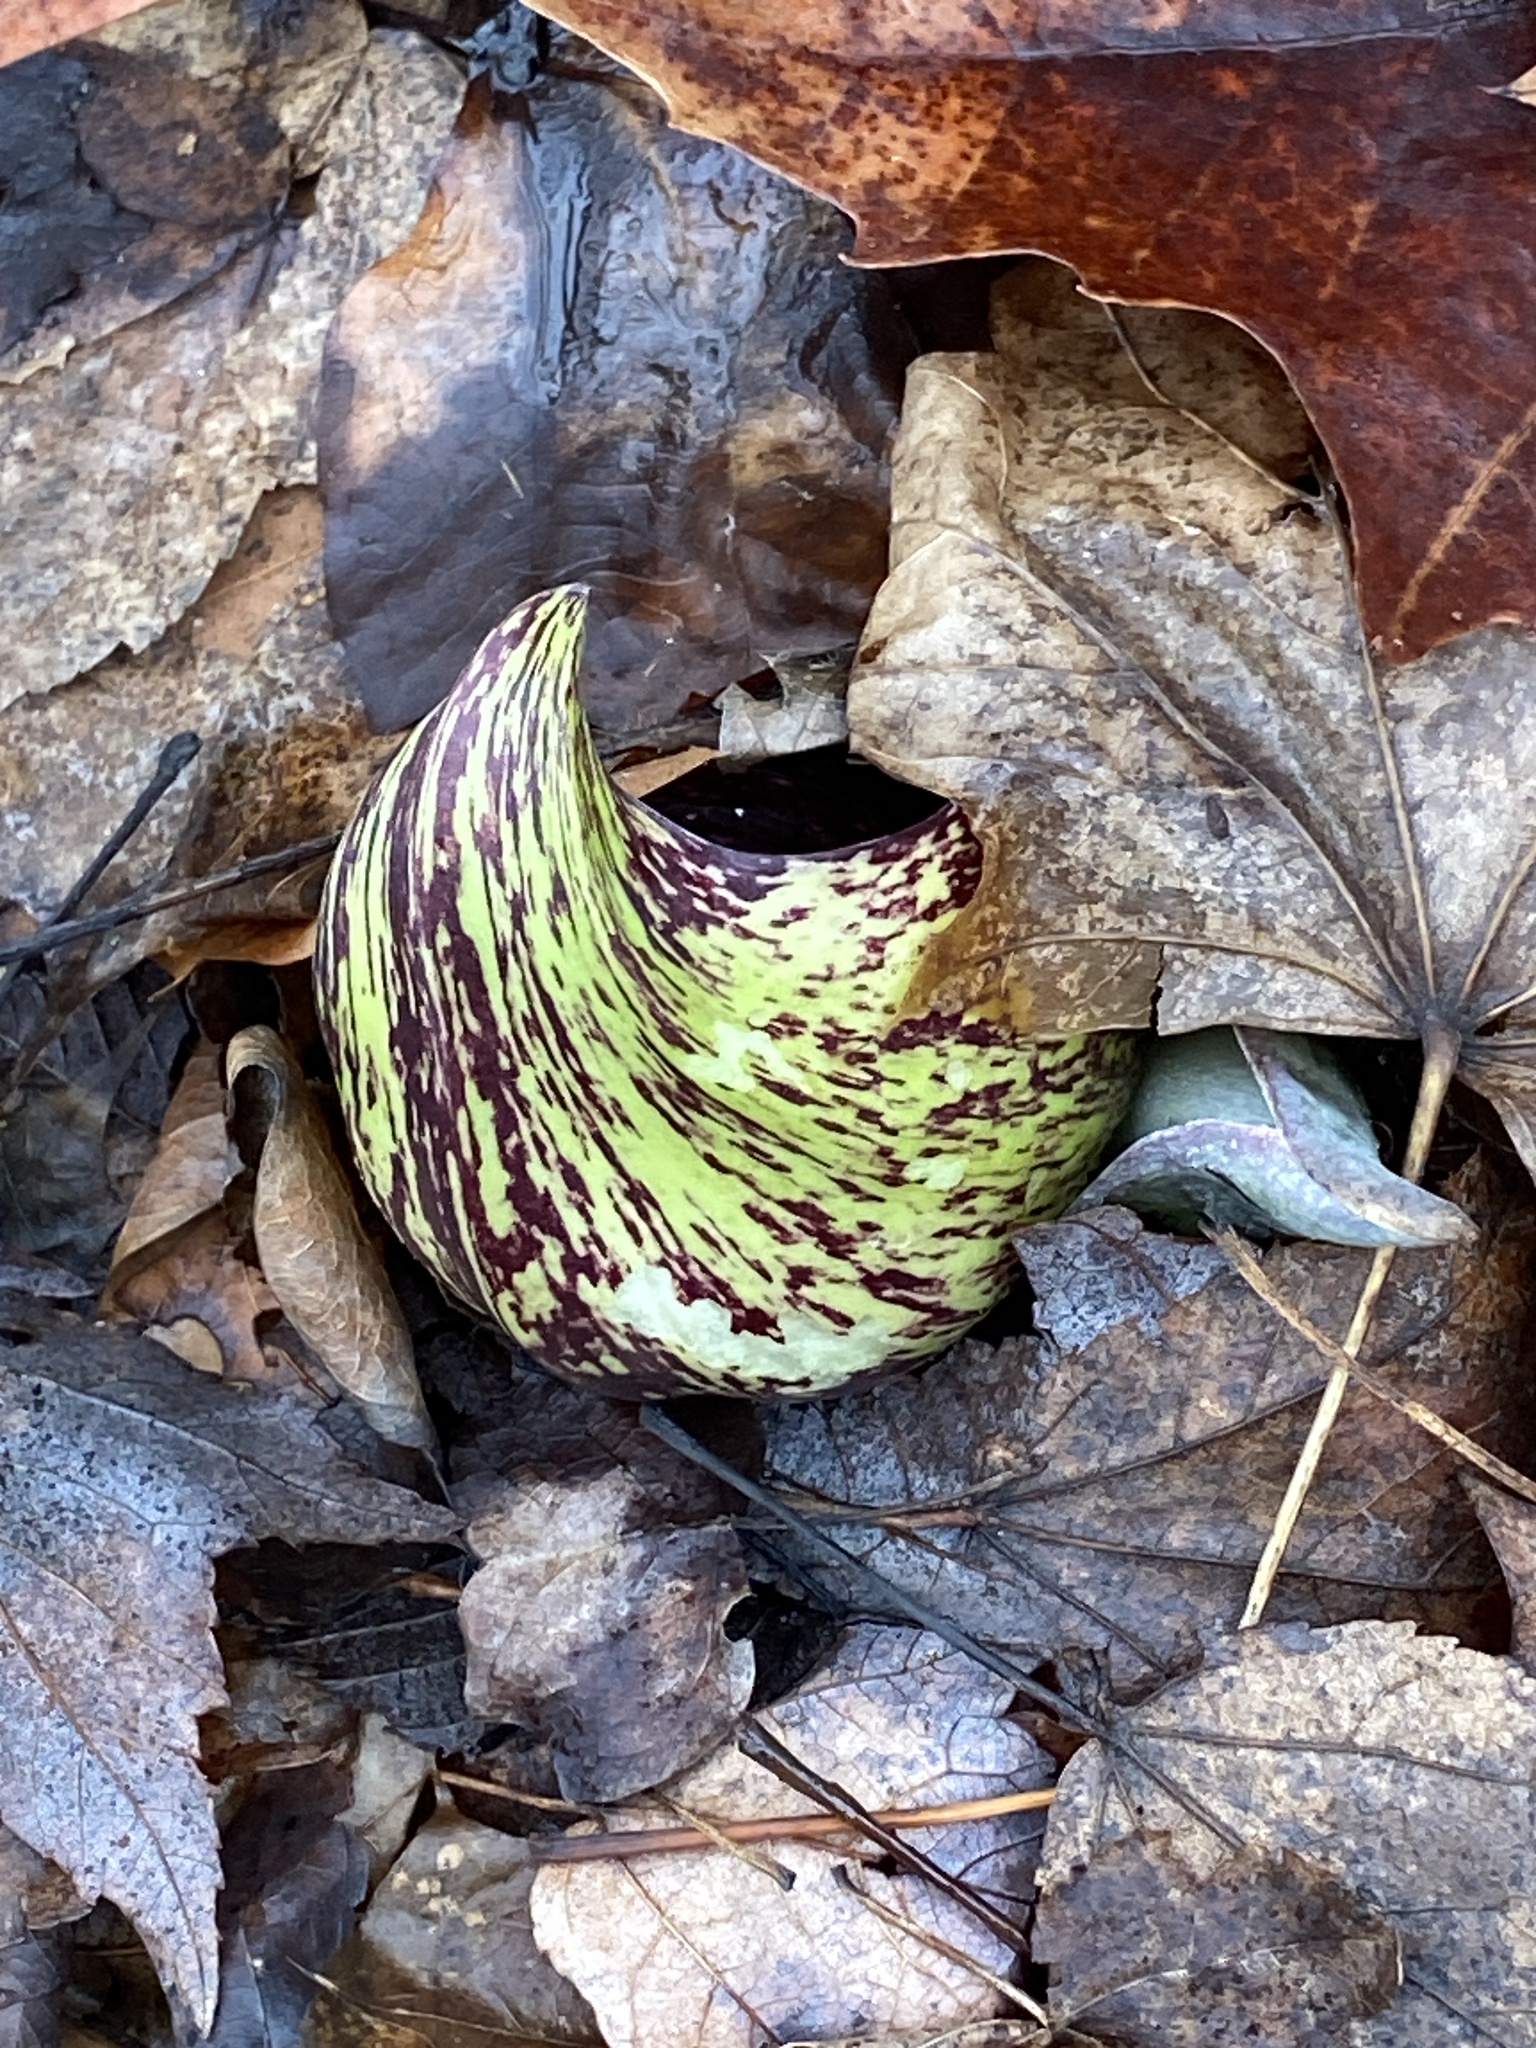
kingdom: Plantae
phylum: Tracheophyta
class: Liliopsida
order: Alismatales
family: Araceae
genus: Symplocarpus
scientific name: Symplocarpus foetidus
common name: Eastern skunk cabbage
